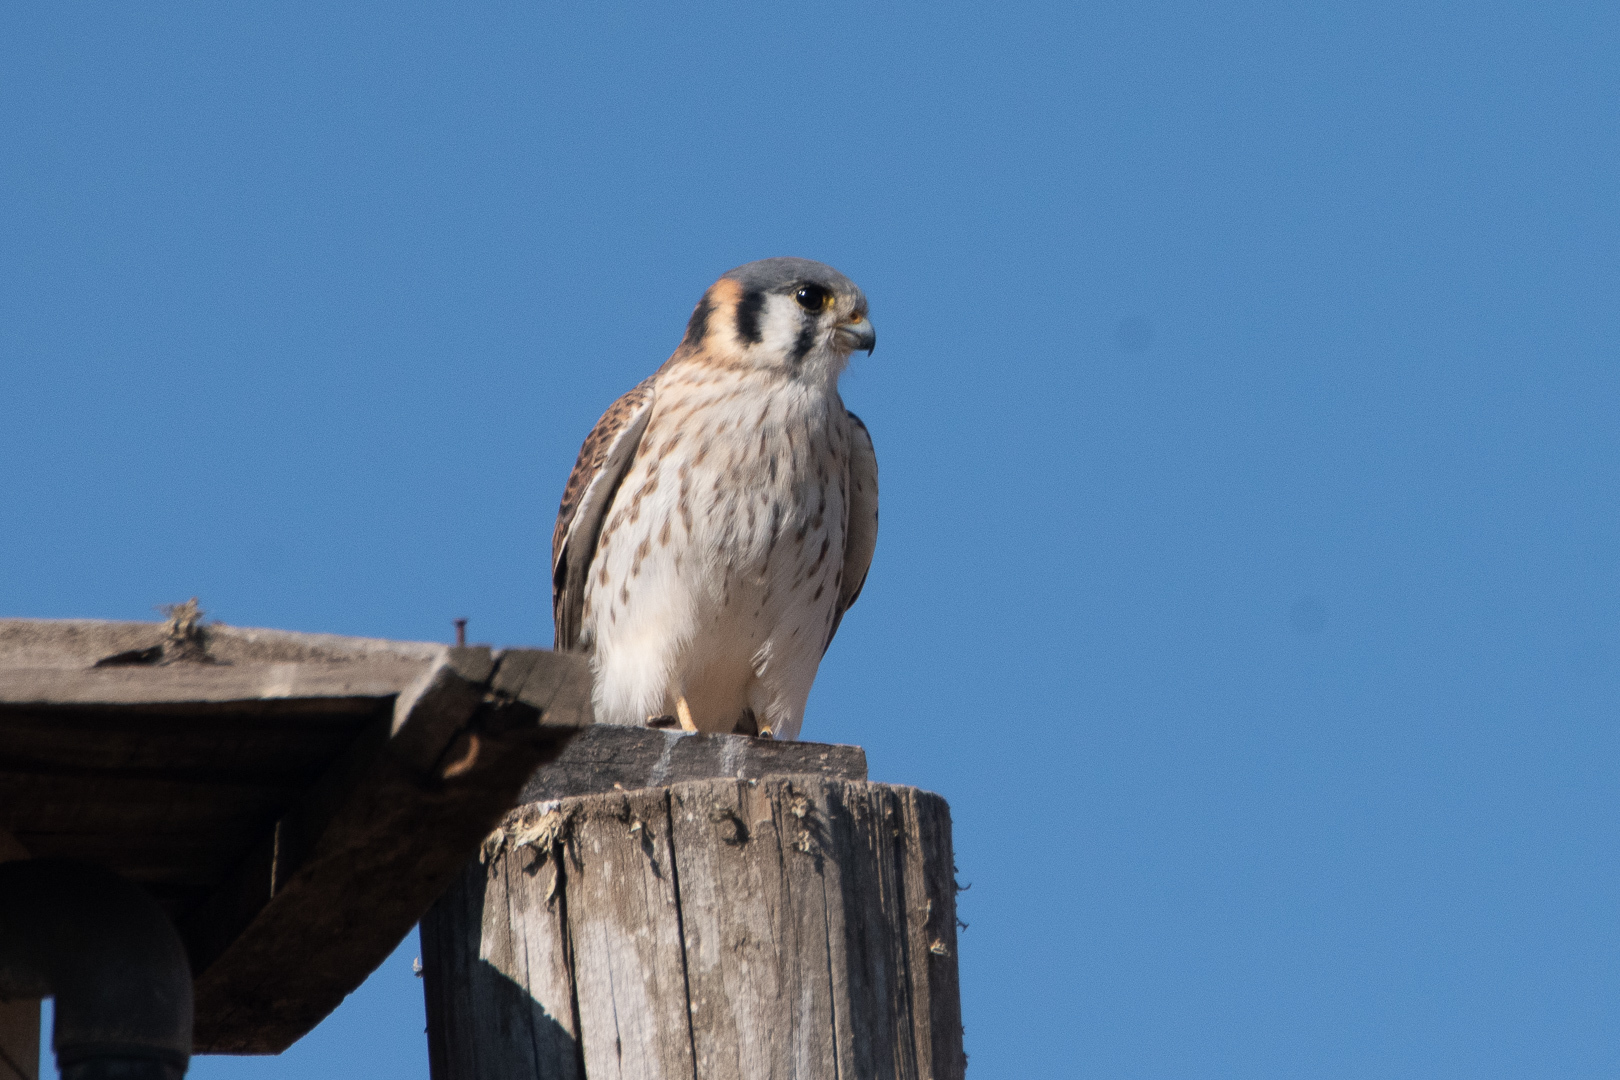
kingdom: Animalia
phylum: Chordata
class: Aves
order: Falconiformes
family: Falconidae
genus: Falco
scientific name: Falco sparverius
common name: American kestrel
